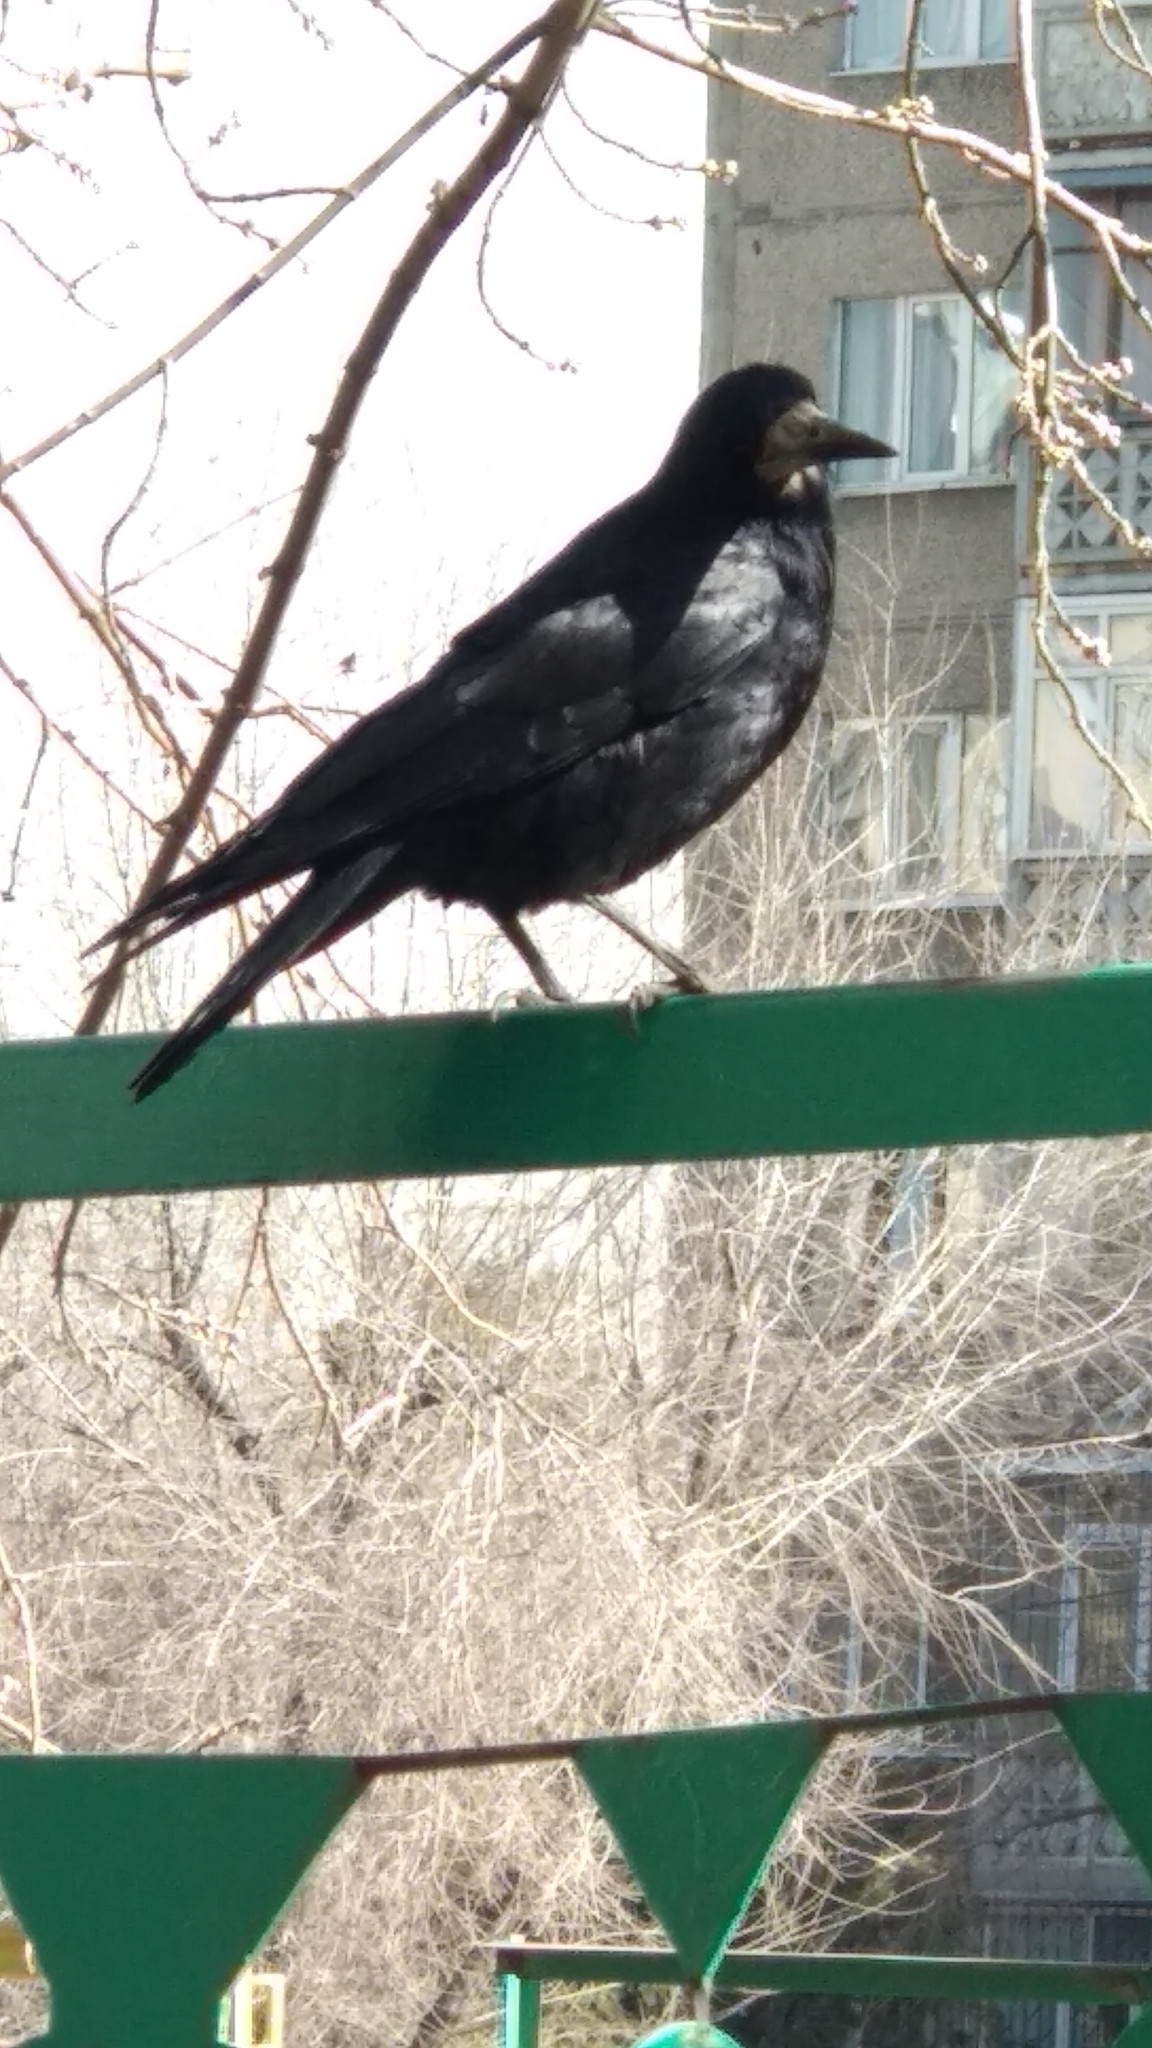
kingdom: Animalia
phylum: Chordata
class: Aves
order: Passeriformes
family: Corvidae
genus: Corvus
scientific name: Corvus frugilegus
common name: Rook
